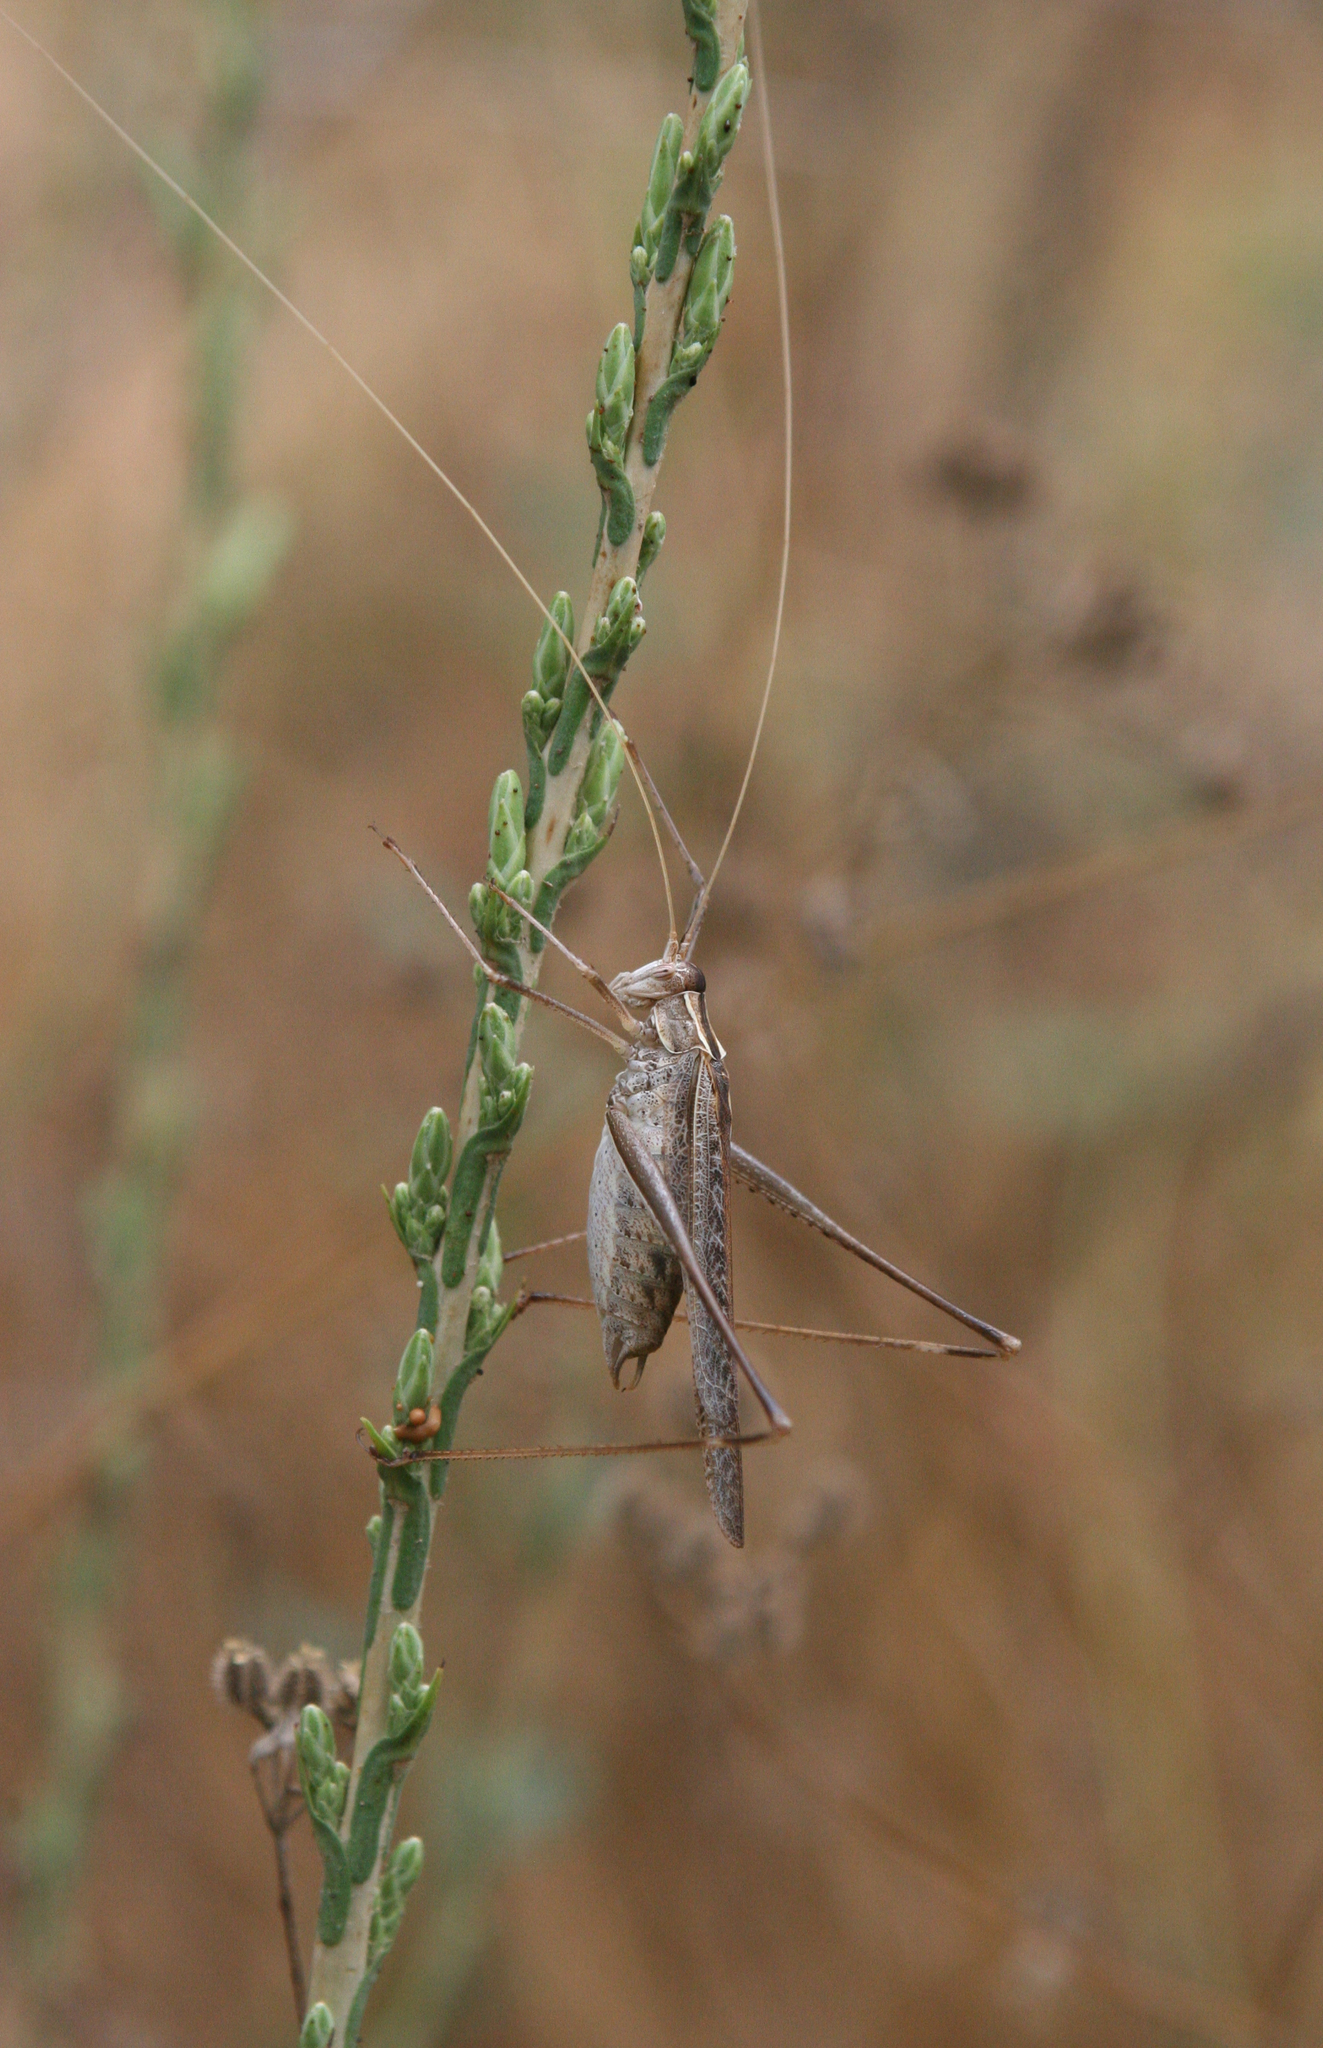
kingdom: Animalia
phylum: Arthropoda
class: Insecta
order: Orthoptera
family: Tettigoniidae
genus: Tylopsis
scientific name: Tylopsis lilifolia
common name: Lily bush-cricket
